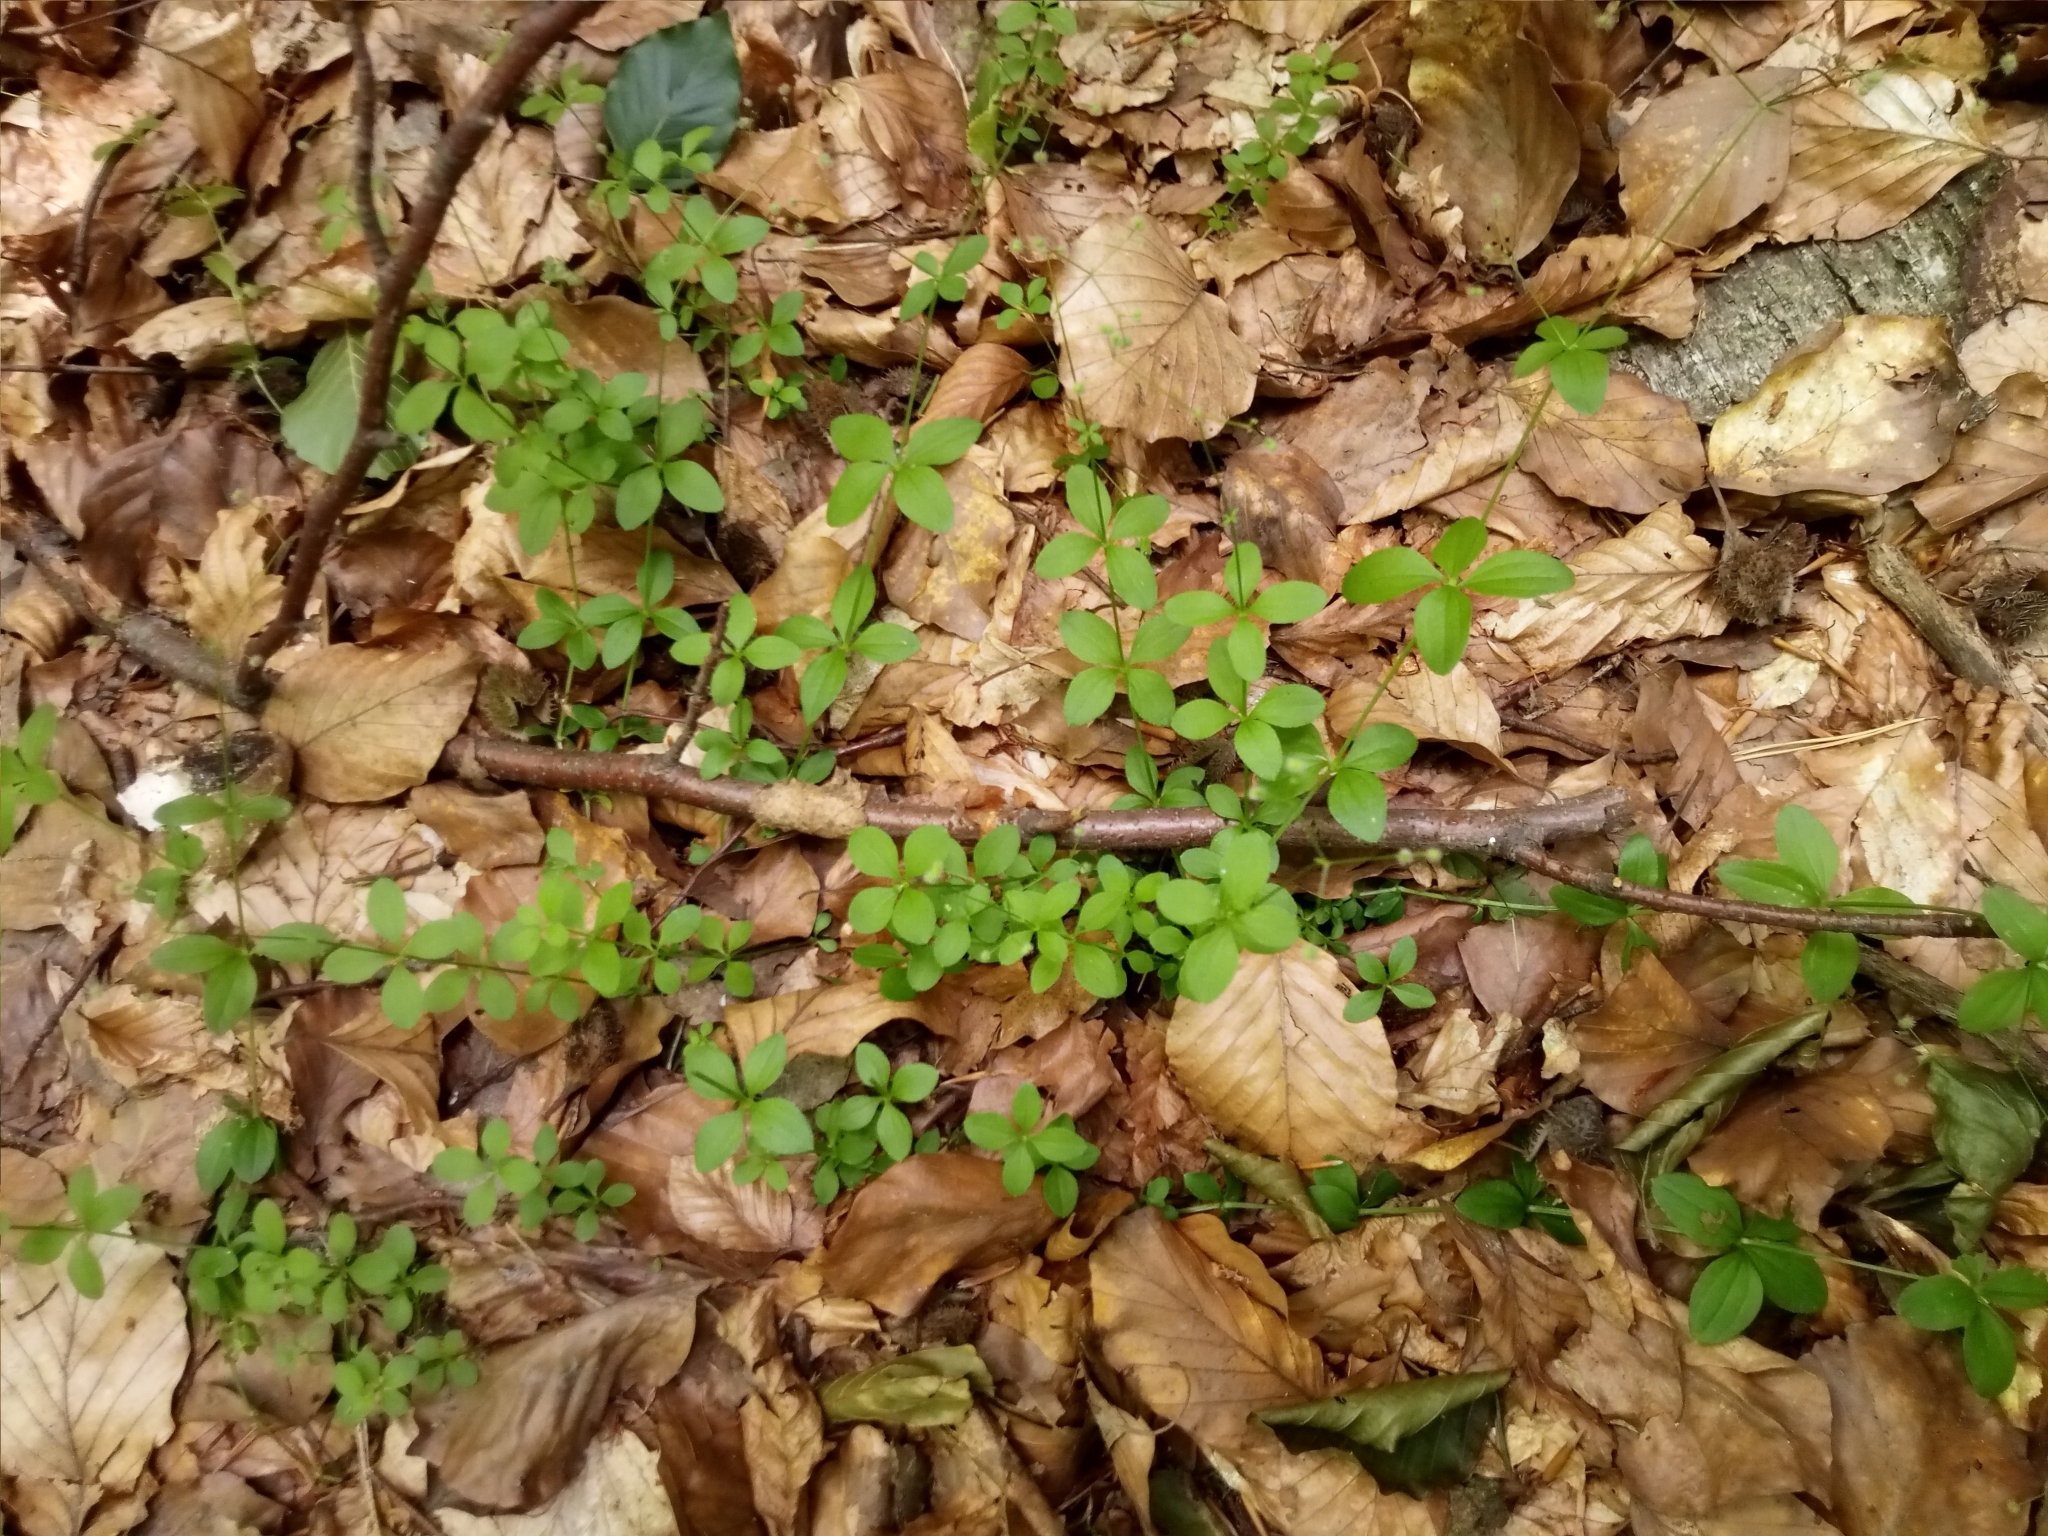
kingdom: Plantae
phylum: Tracheophyta
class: Magnoliopsida
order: Gentianales
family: Rubiaceae
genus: Galium
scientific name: Galium rotundifolium
